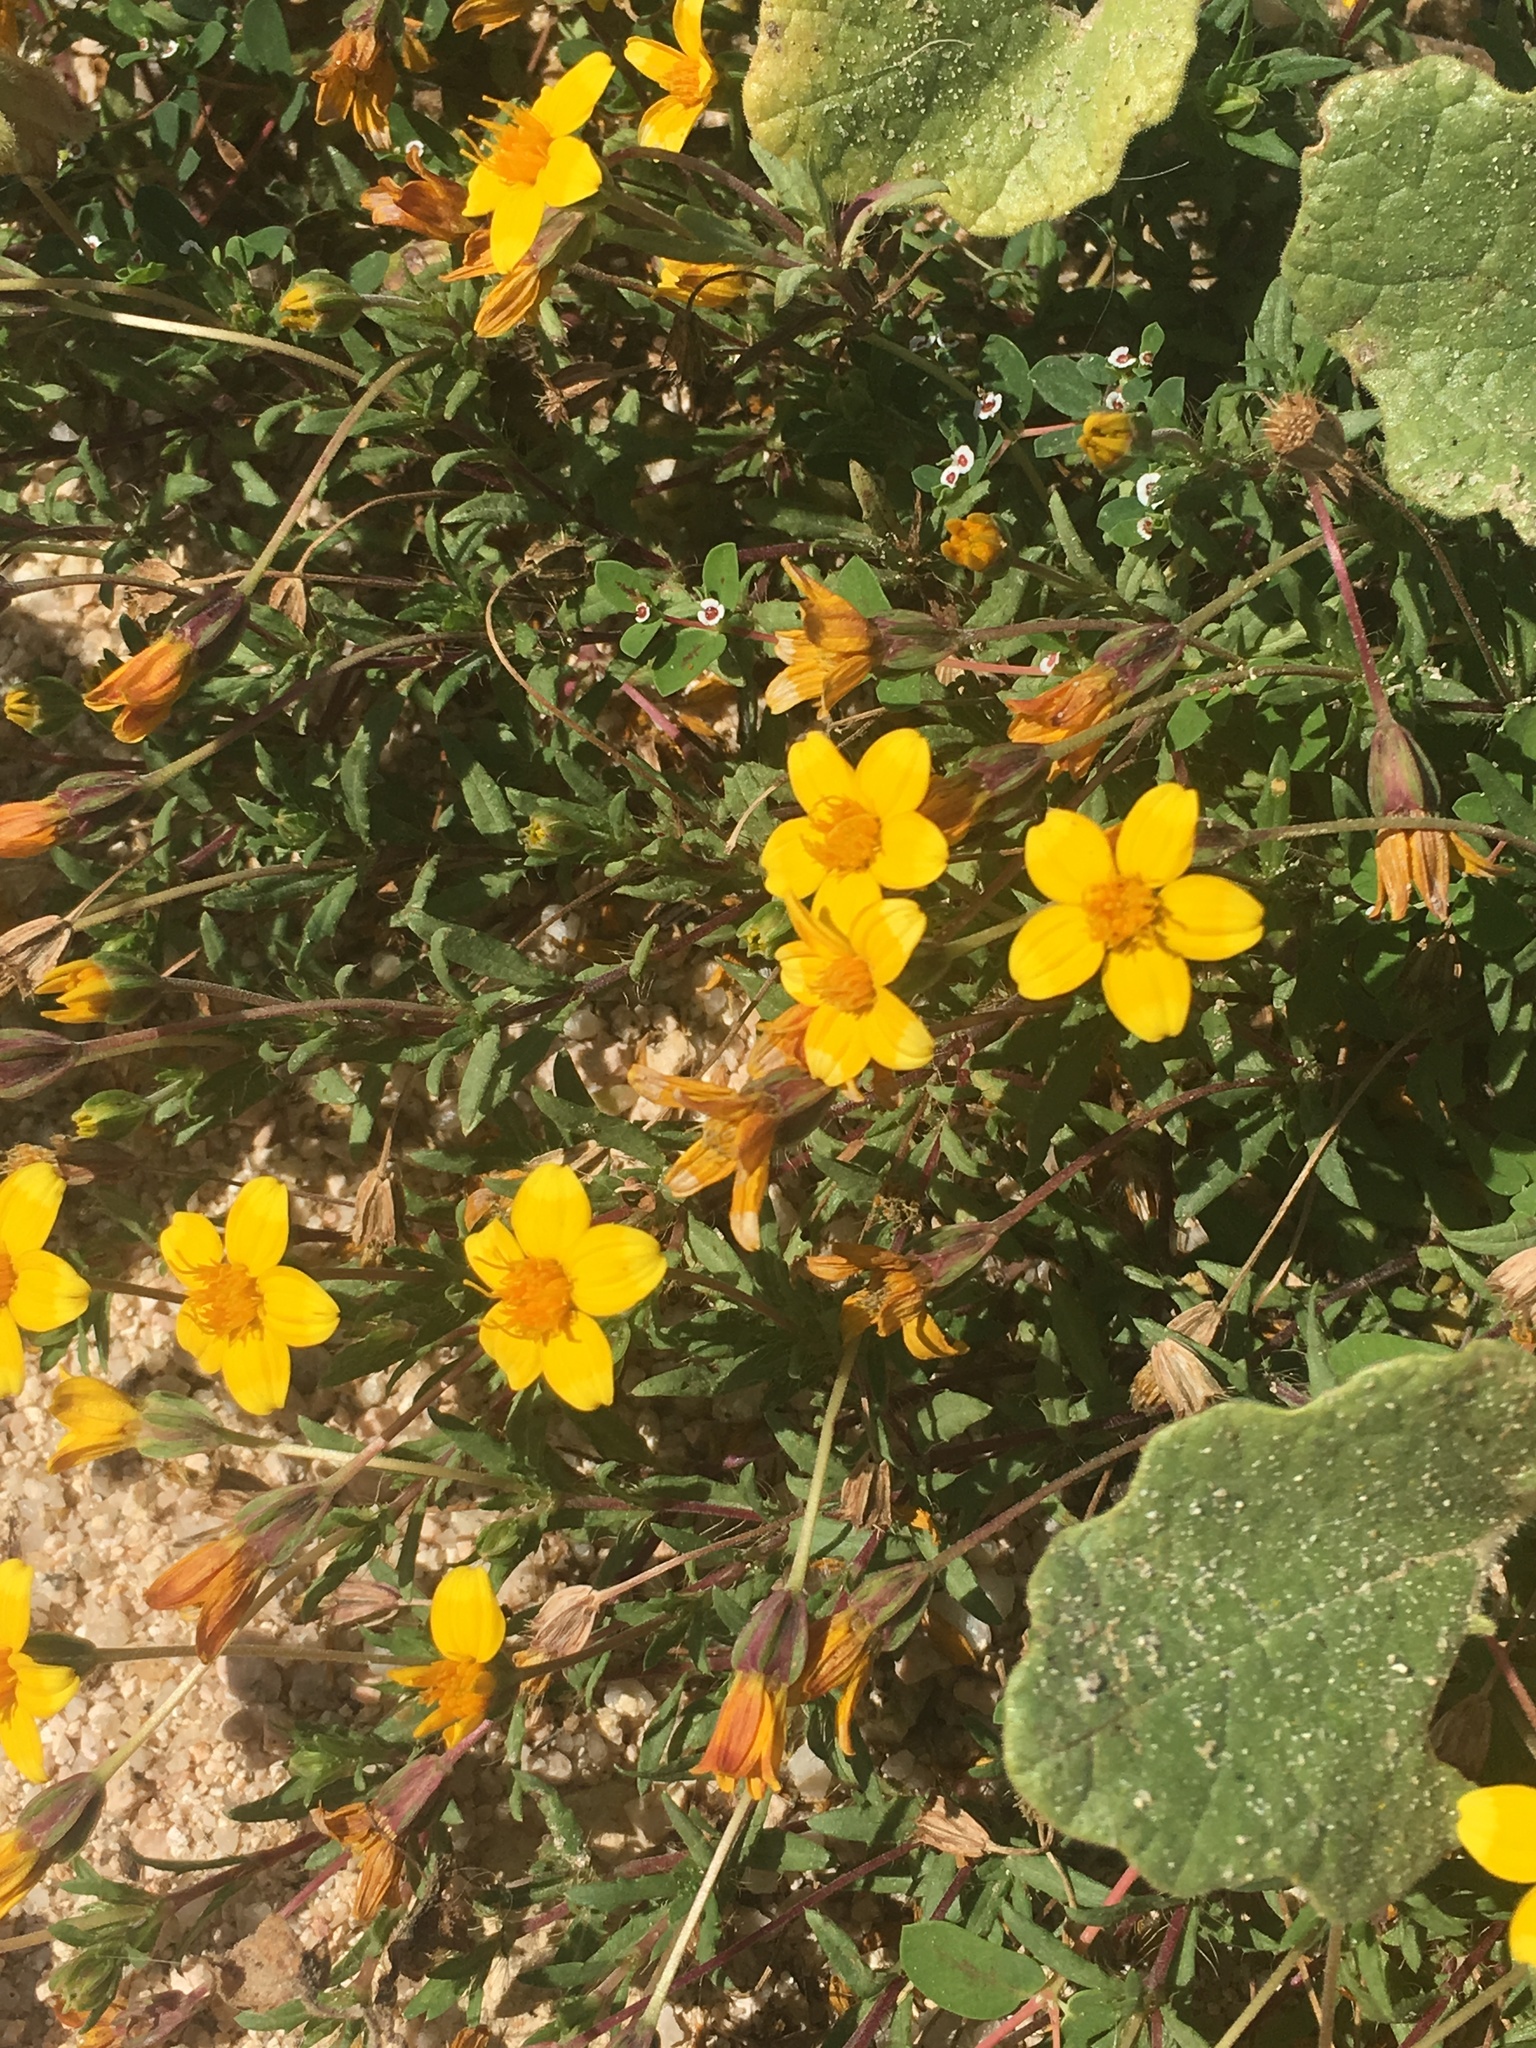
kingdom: Plantae
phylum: Tracheophyta
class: Magnoliopsida
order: Asterales
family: Asteraceae
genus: Pectis
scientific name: Pectis multiseta
